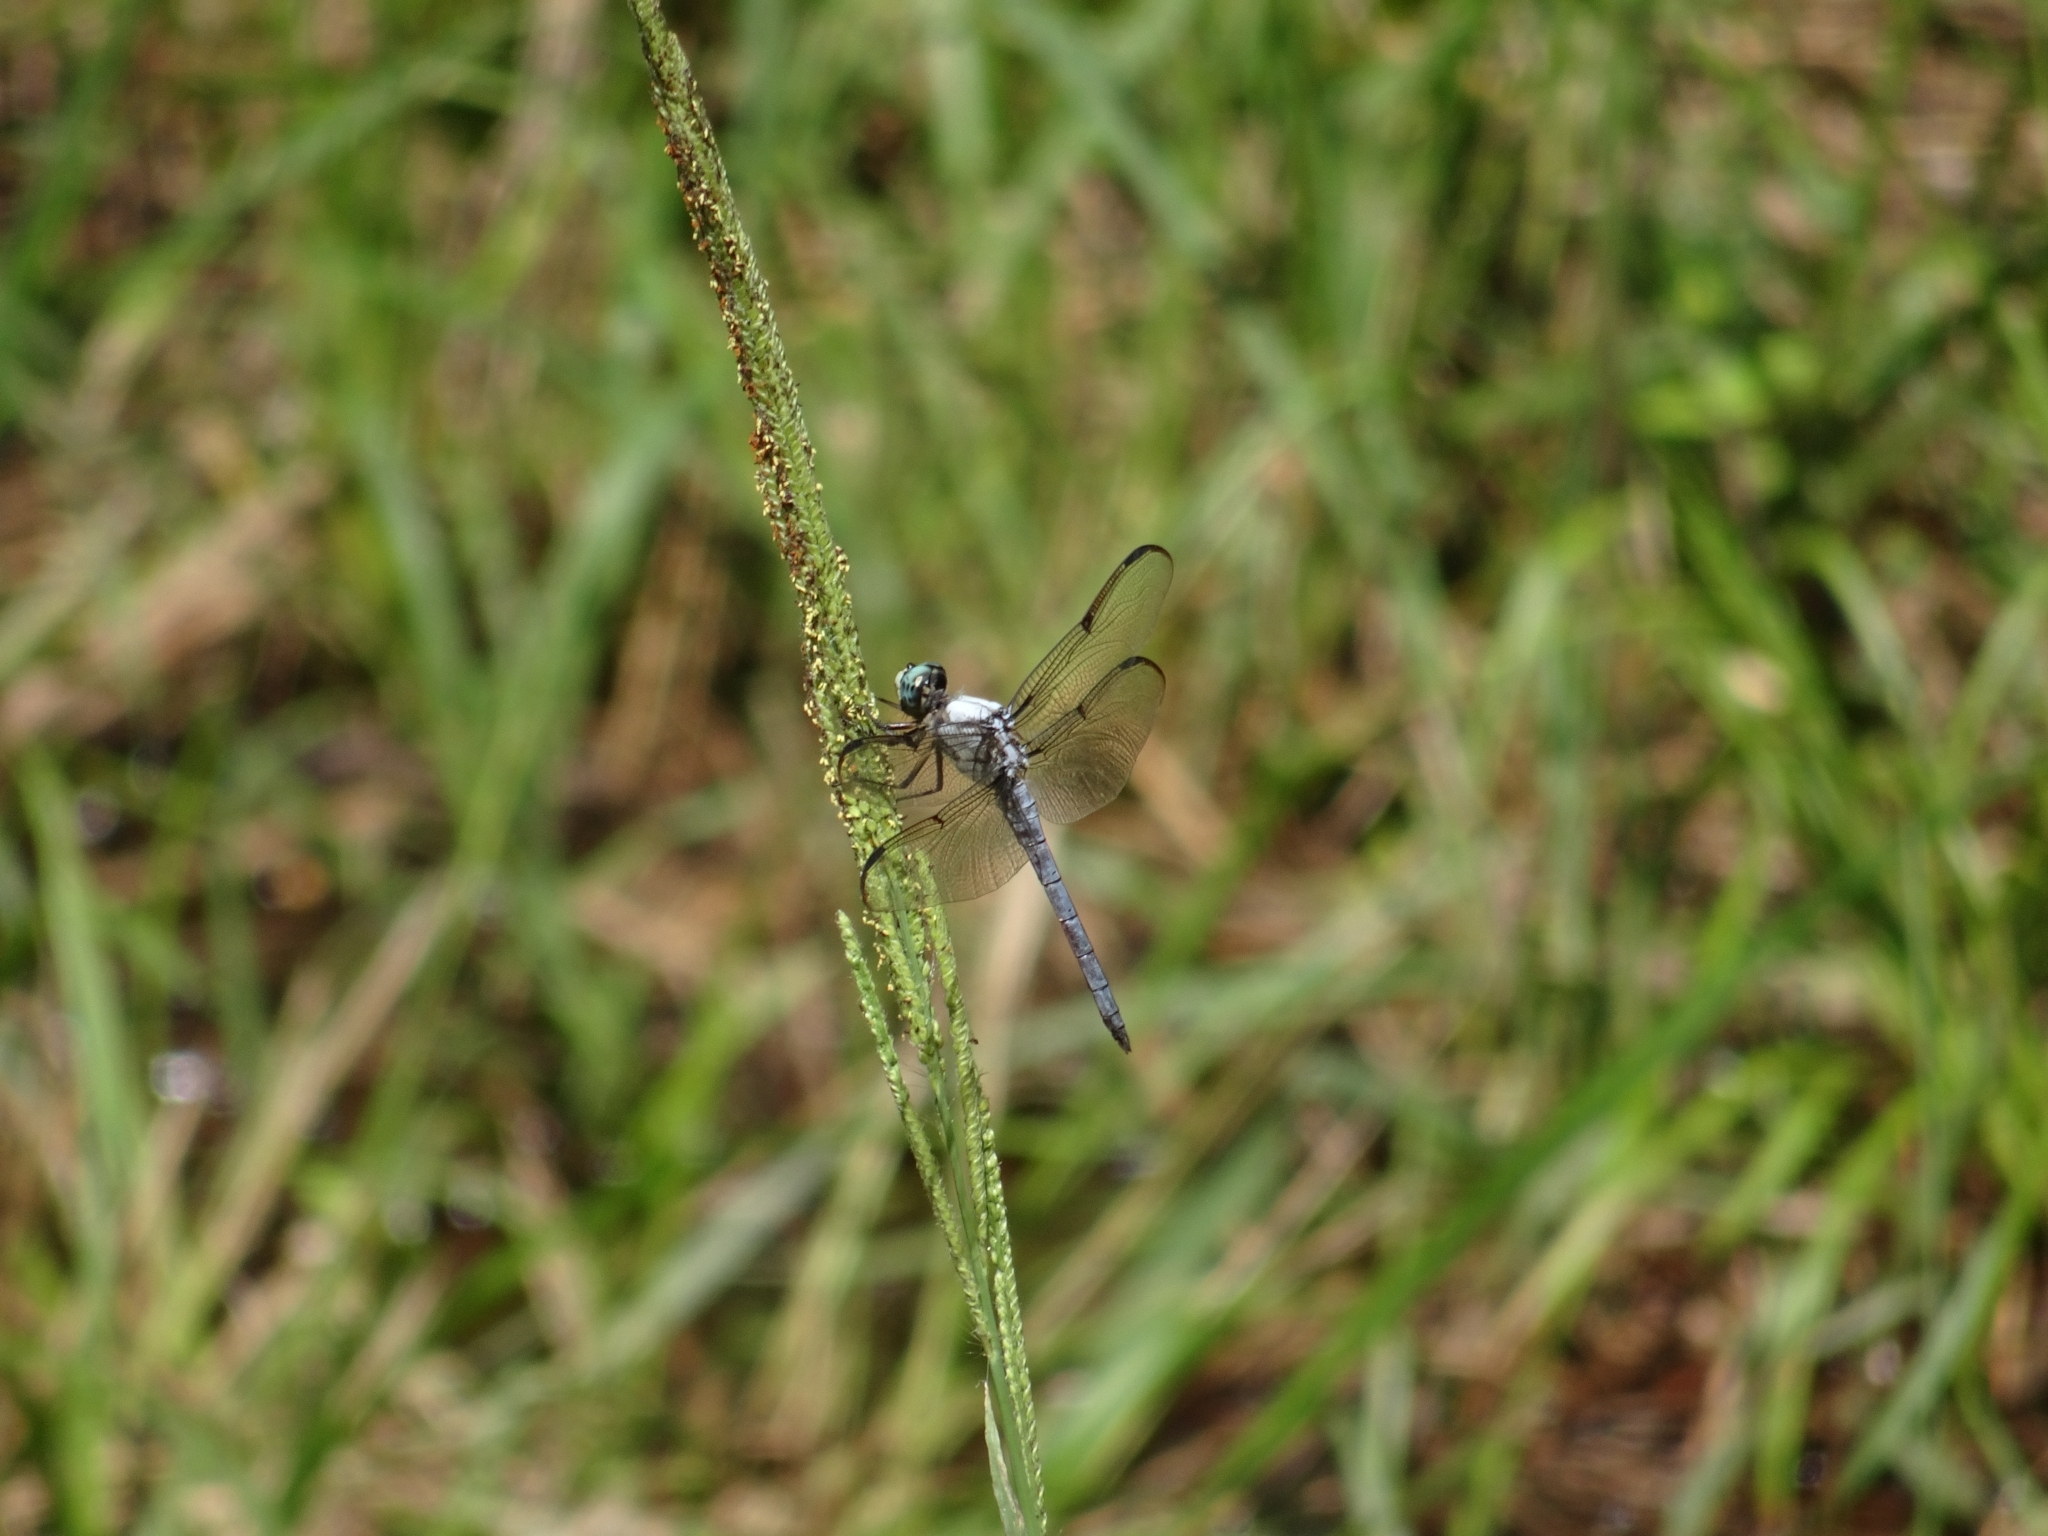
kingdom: Animalia
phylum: Arthropoda
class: Insecta
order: Odonata
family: Libellulidae
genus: Libellula
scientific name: Libellula vibrans
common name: Great blue skimmer
